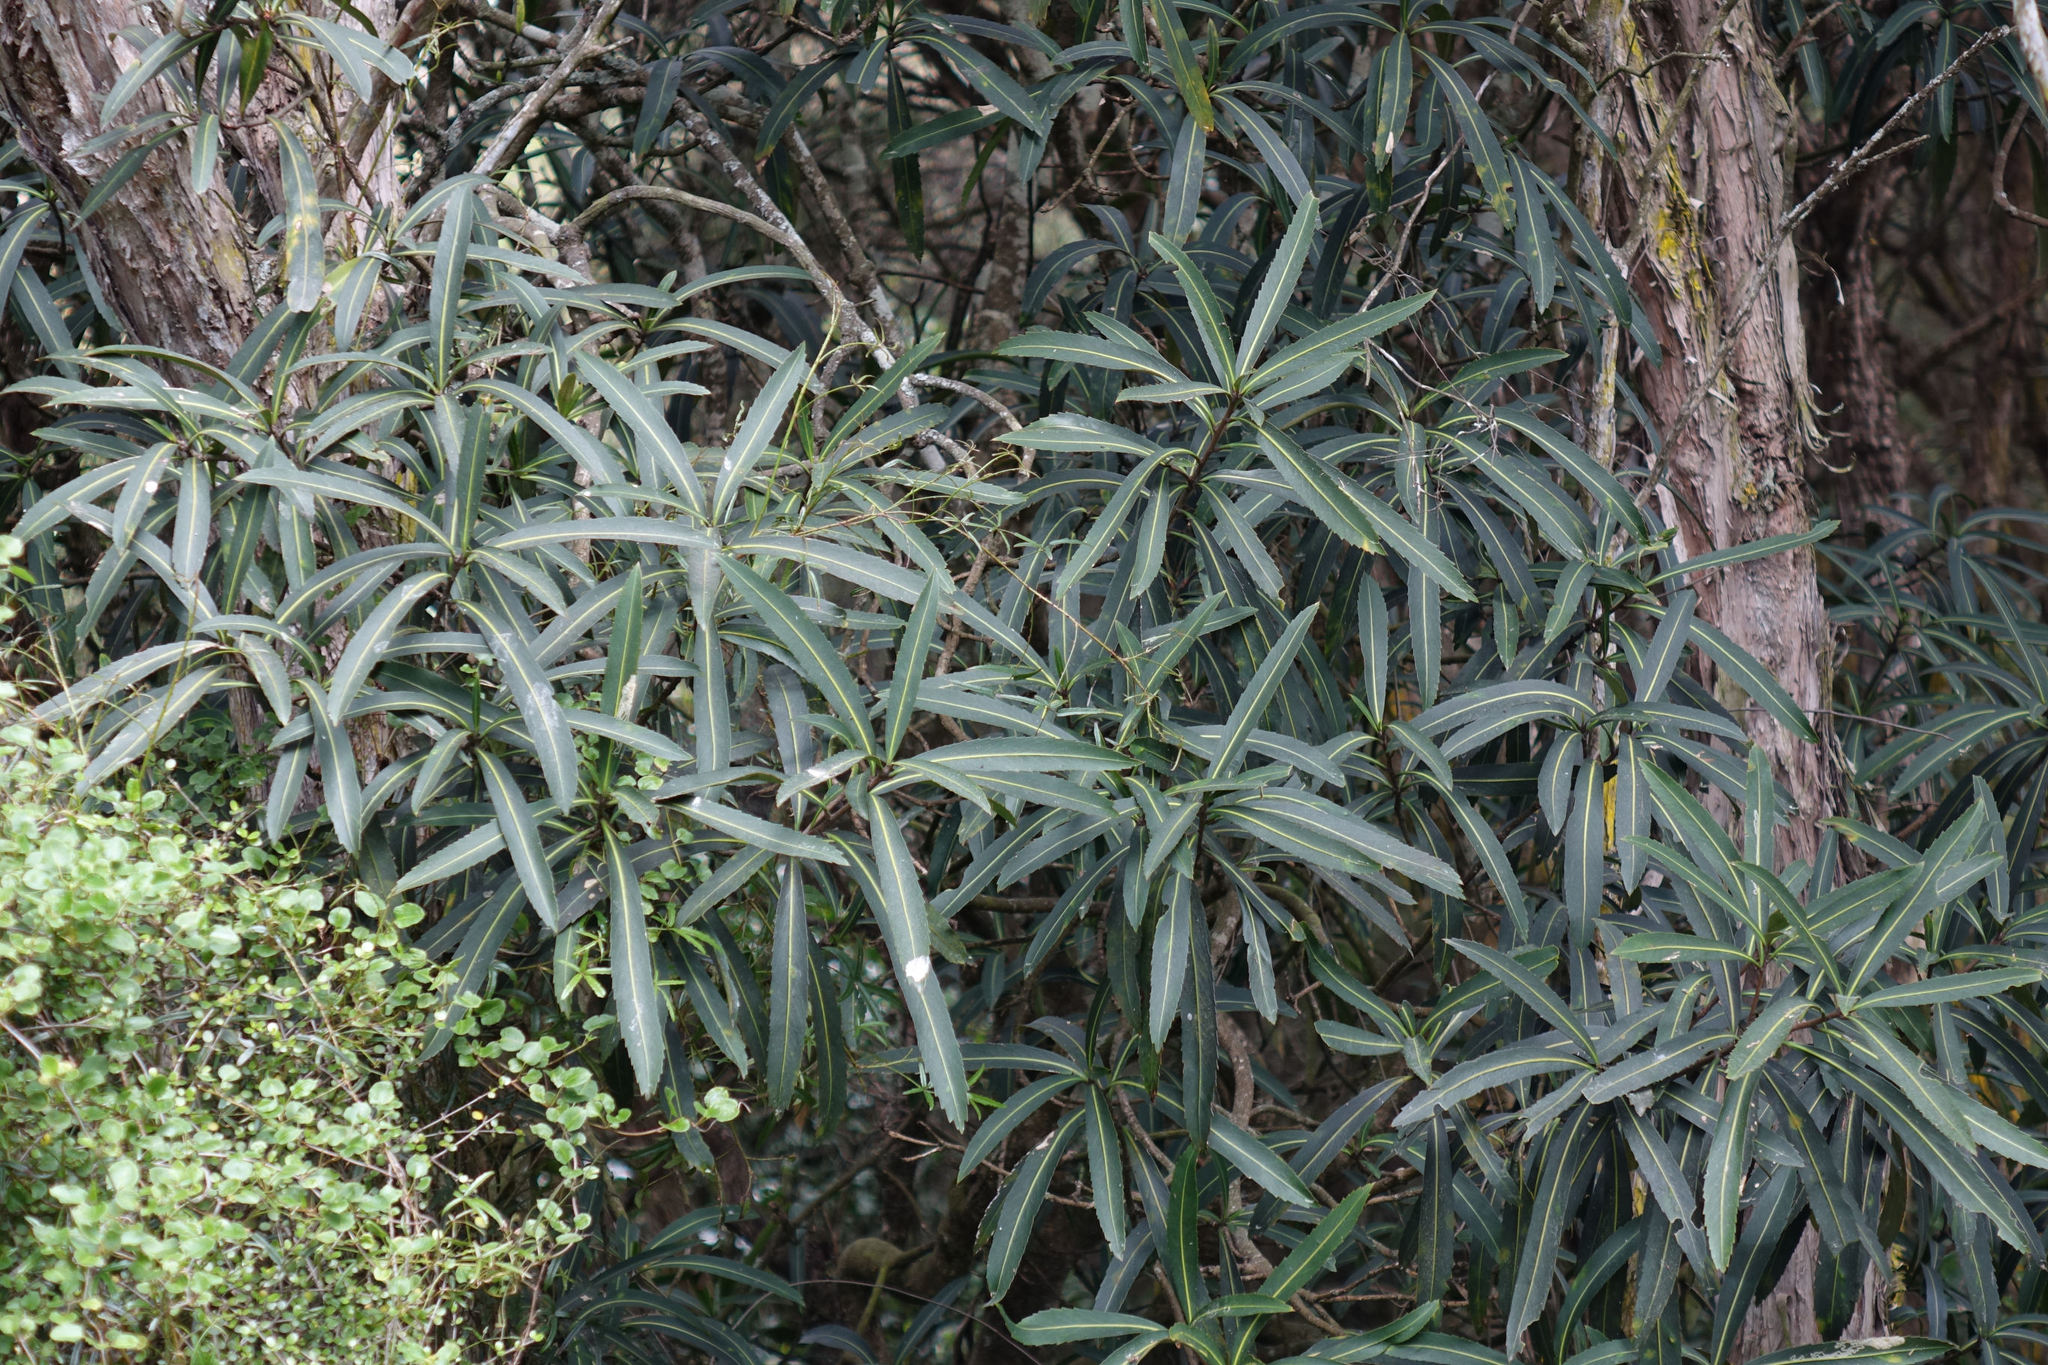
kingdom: Plantae
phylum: Tracheophyta
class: Magnoliopsida
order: Apiales
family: Araliaceae
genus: Pseudopanax
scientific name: Pseudopanax crassifolius
